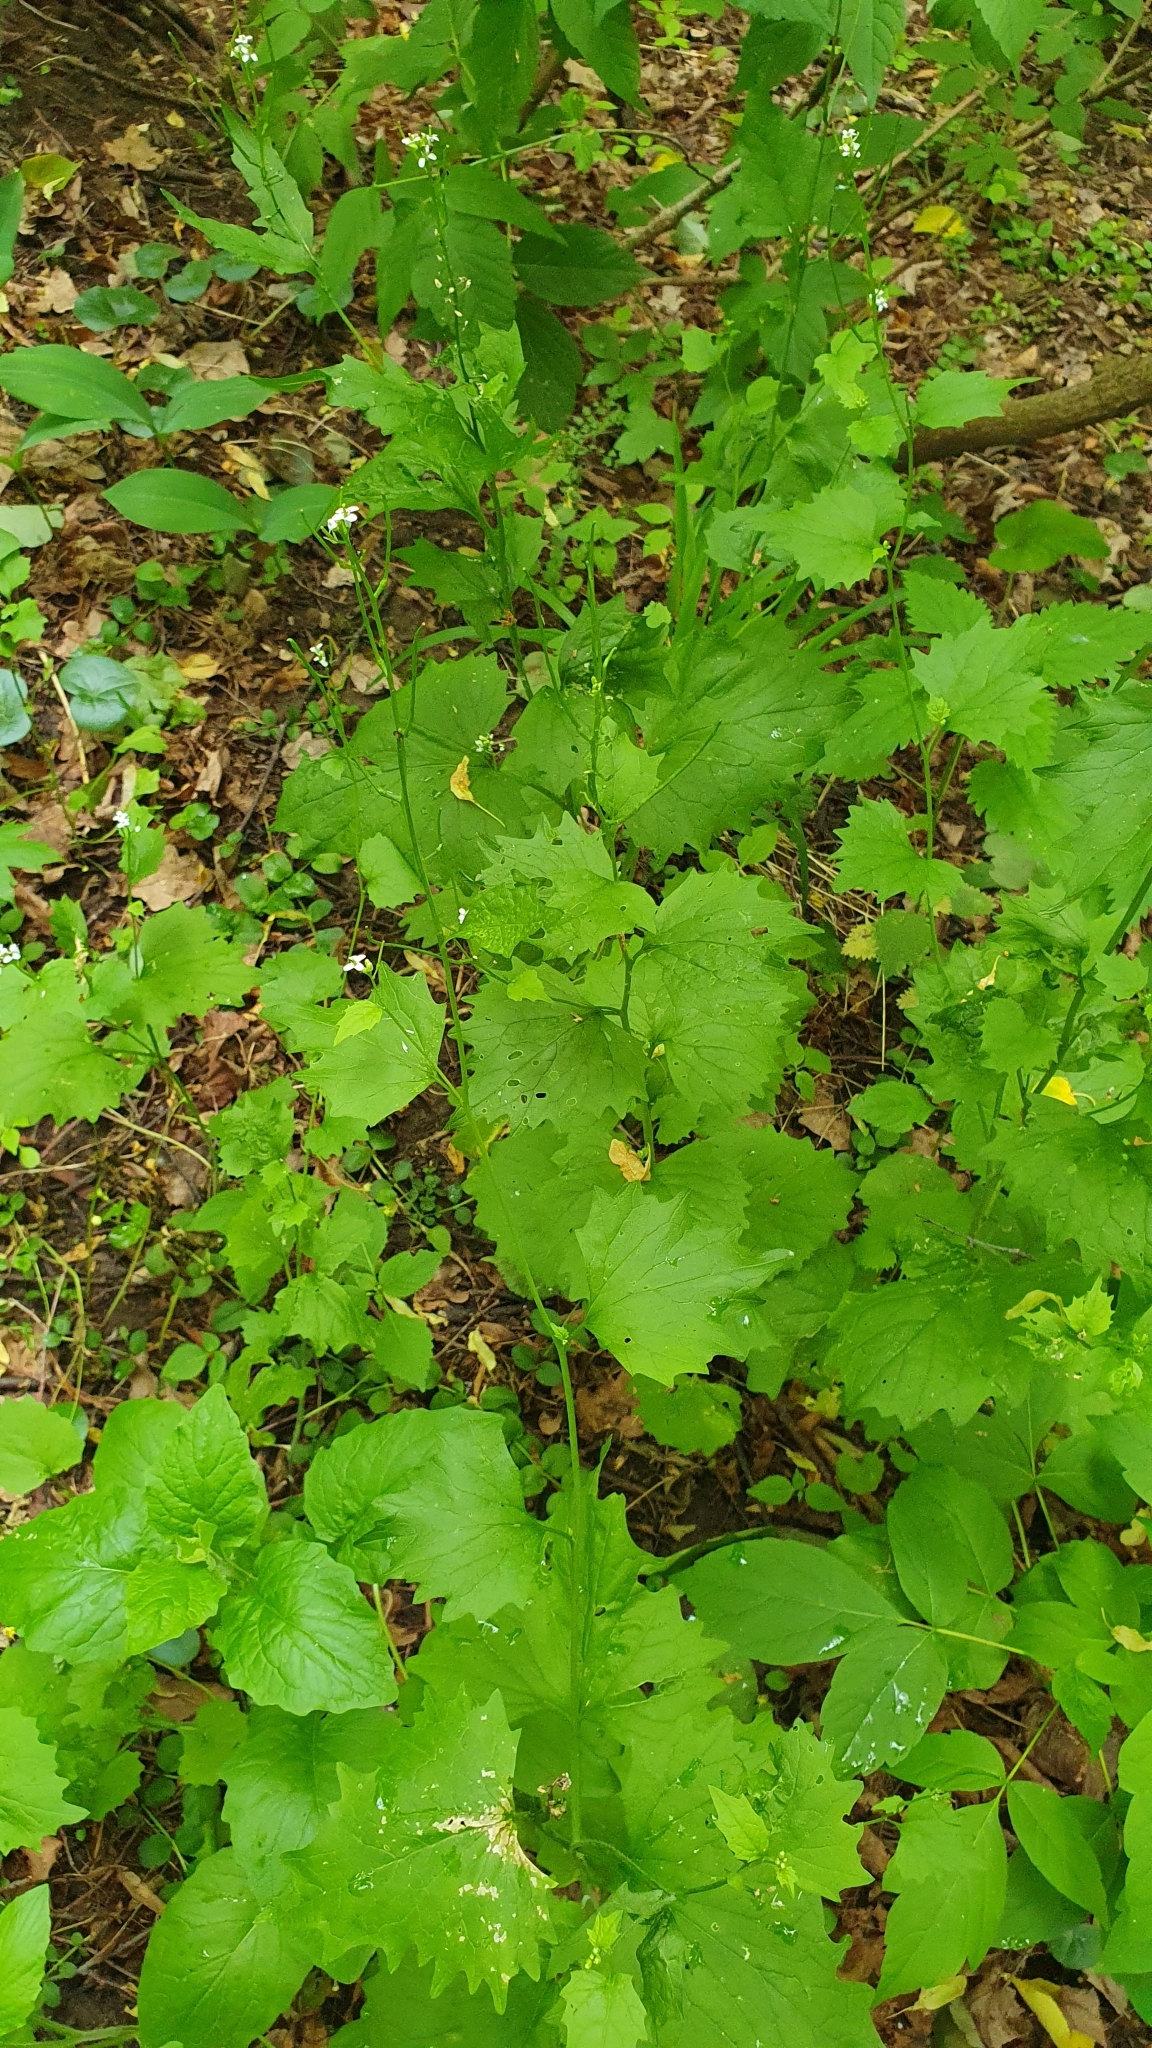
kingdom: Plantae
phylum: Tracheophyta
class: Magnoliopsida
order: Brassicales
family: Brassicaceae
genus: Alliaria
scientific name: Alliaria petiolata
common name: Garlic mustard
